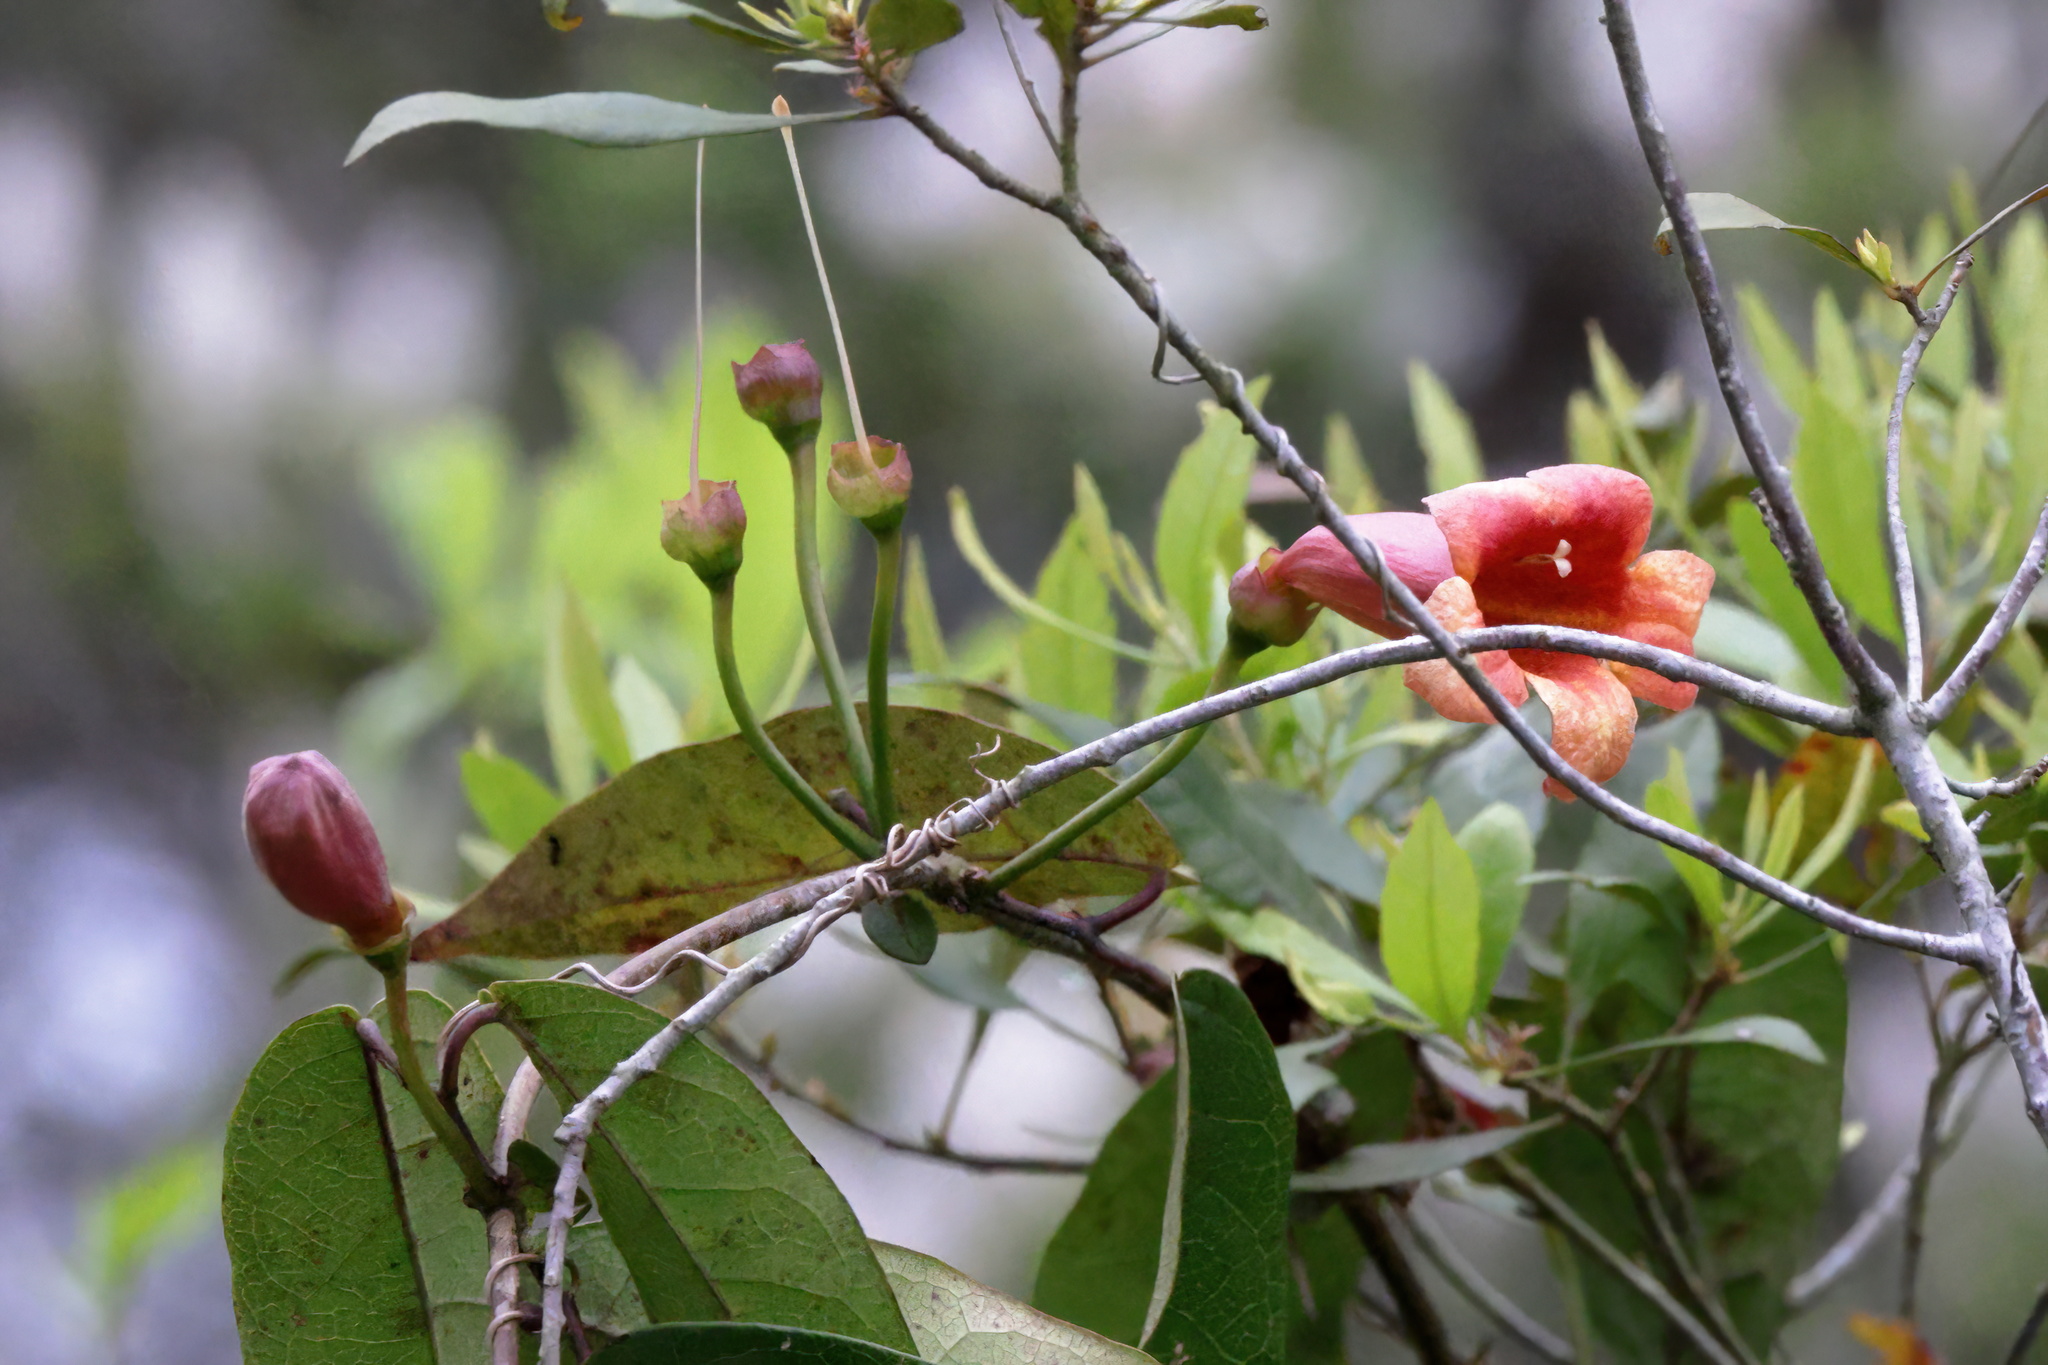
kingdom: Plantae
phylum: Tracheophyta
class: Magnoliopsida
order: Lamiales
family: Bignoniaceae
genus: Bignonia
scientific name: Bignonia capreolata
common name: Crossvine
